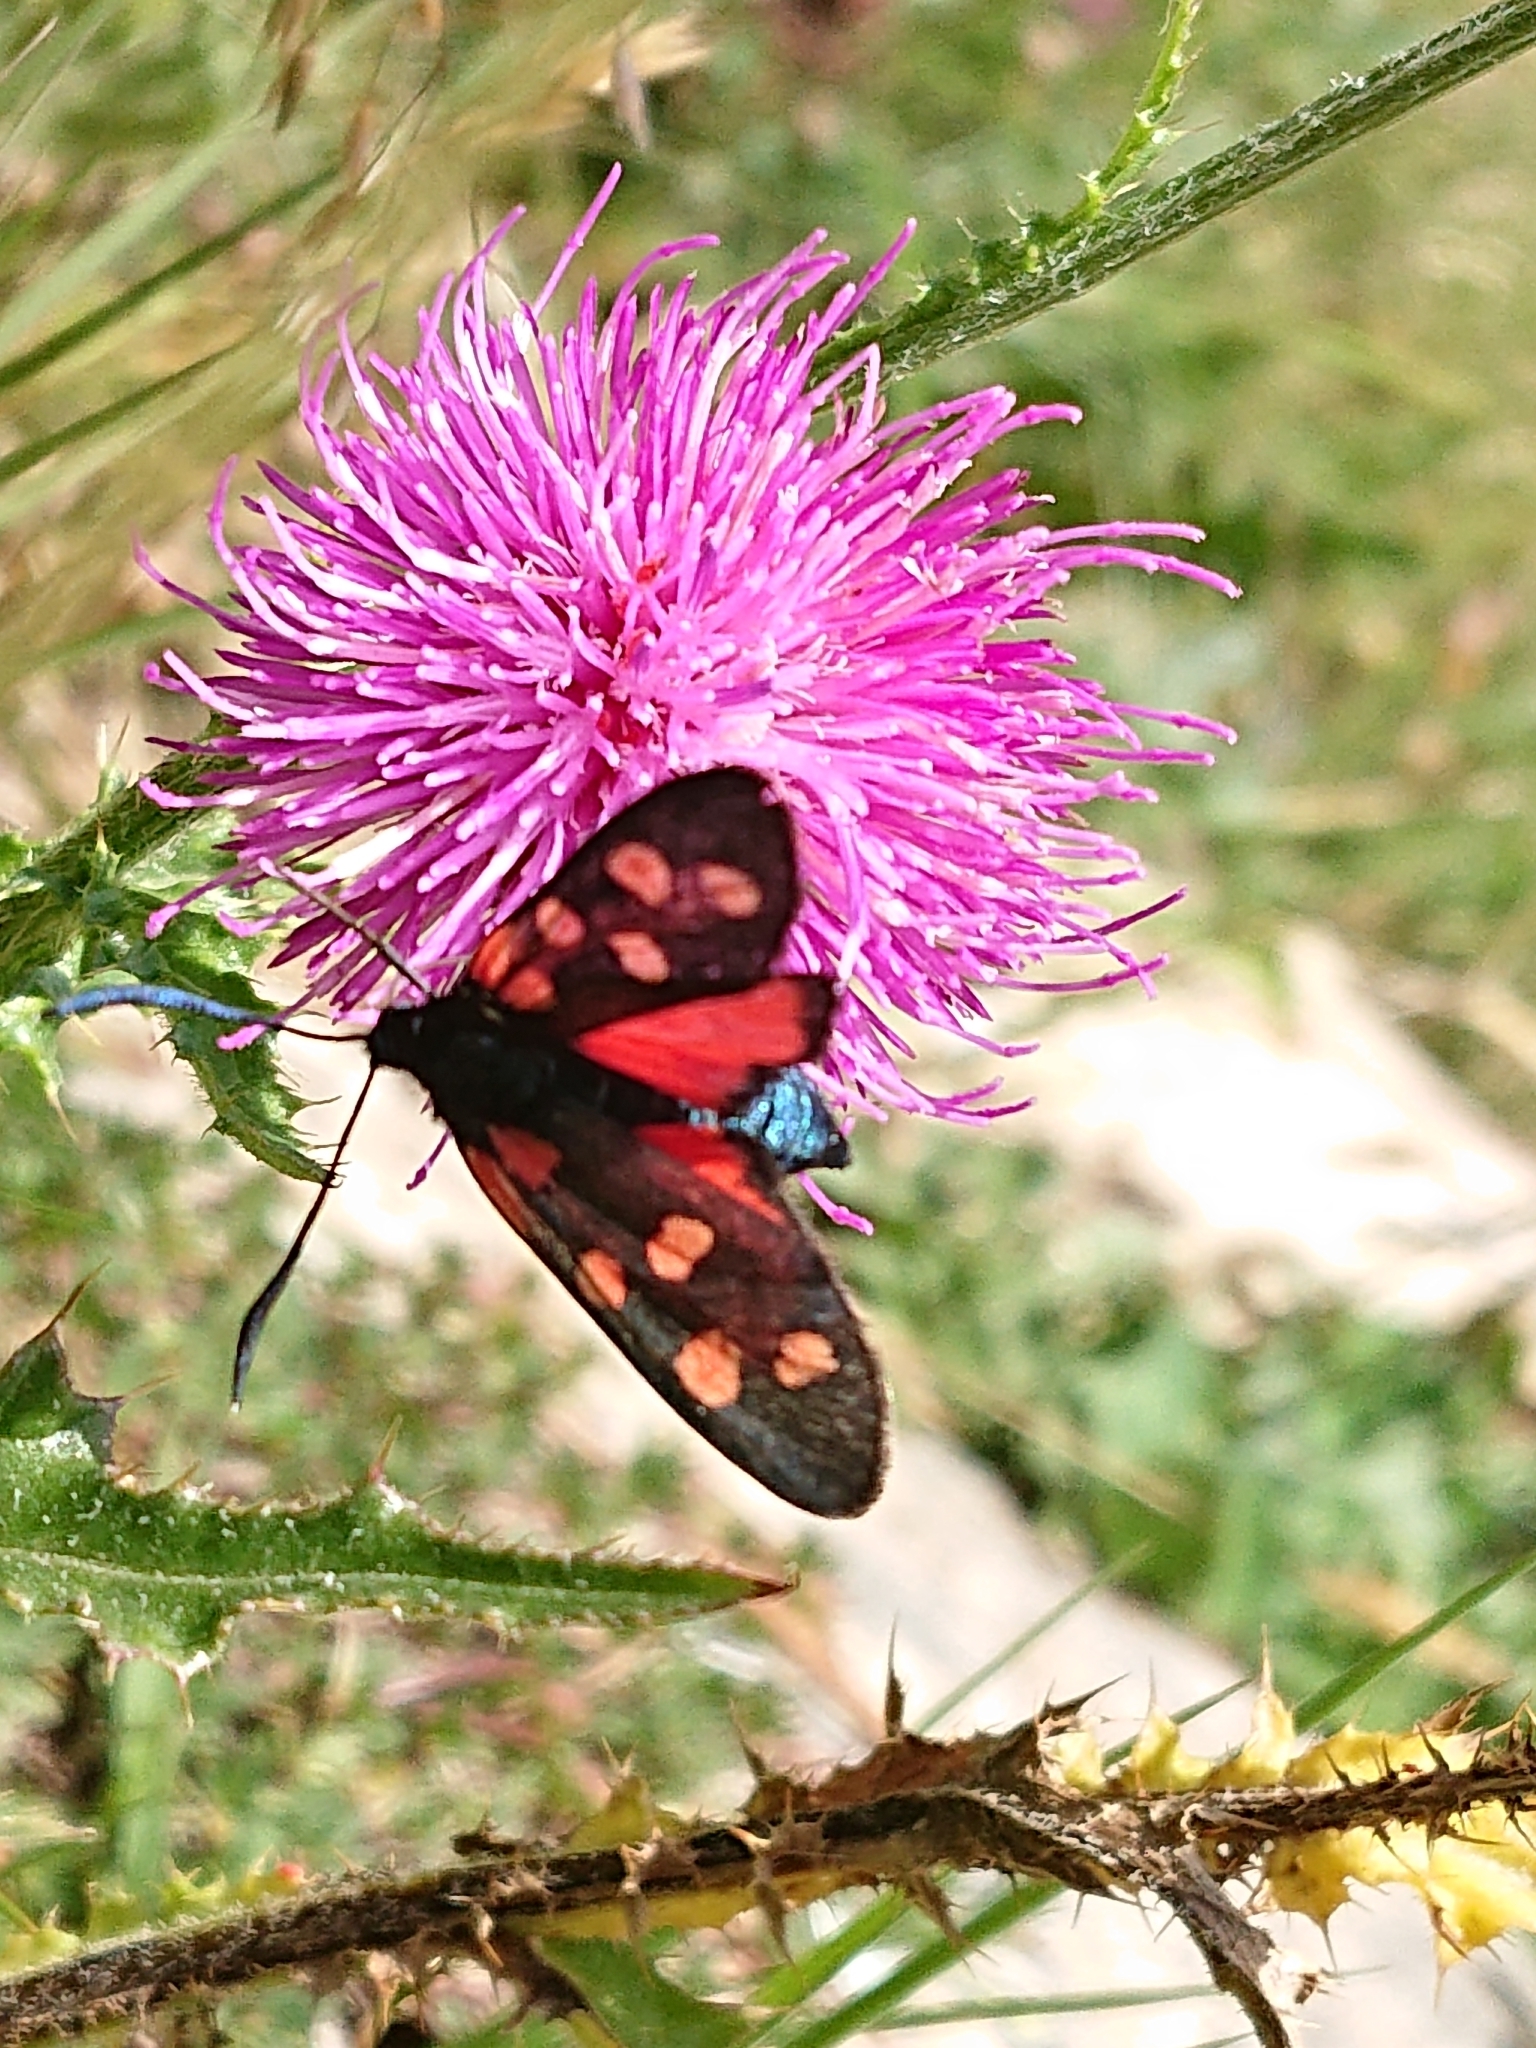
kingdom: Animalia
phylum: Arthropoda
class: Insecta
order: Lepidoptera
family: Zygaenidae
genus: Zygaena
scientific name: Zygaena transalpina
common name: Southern six spot burnet
